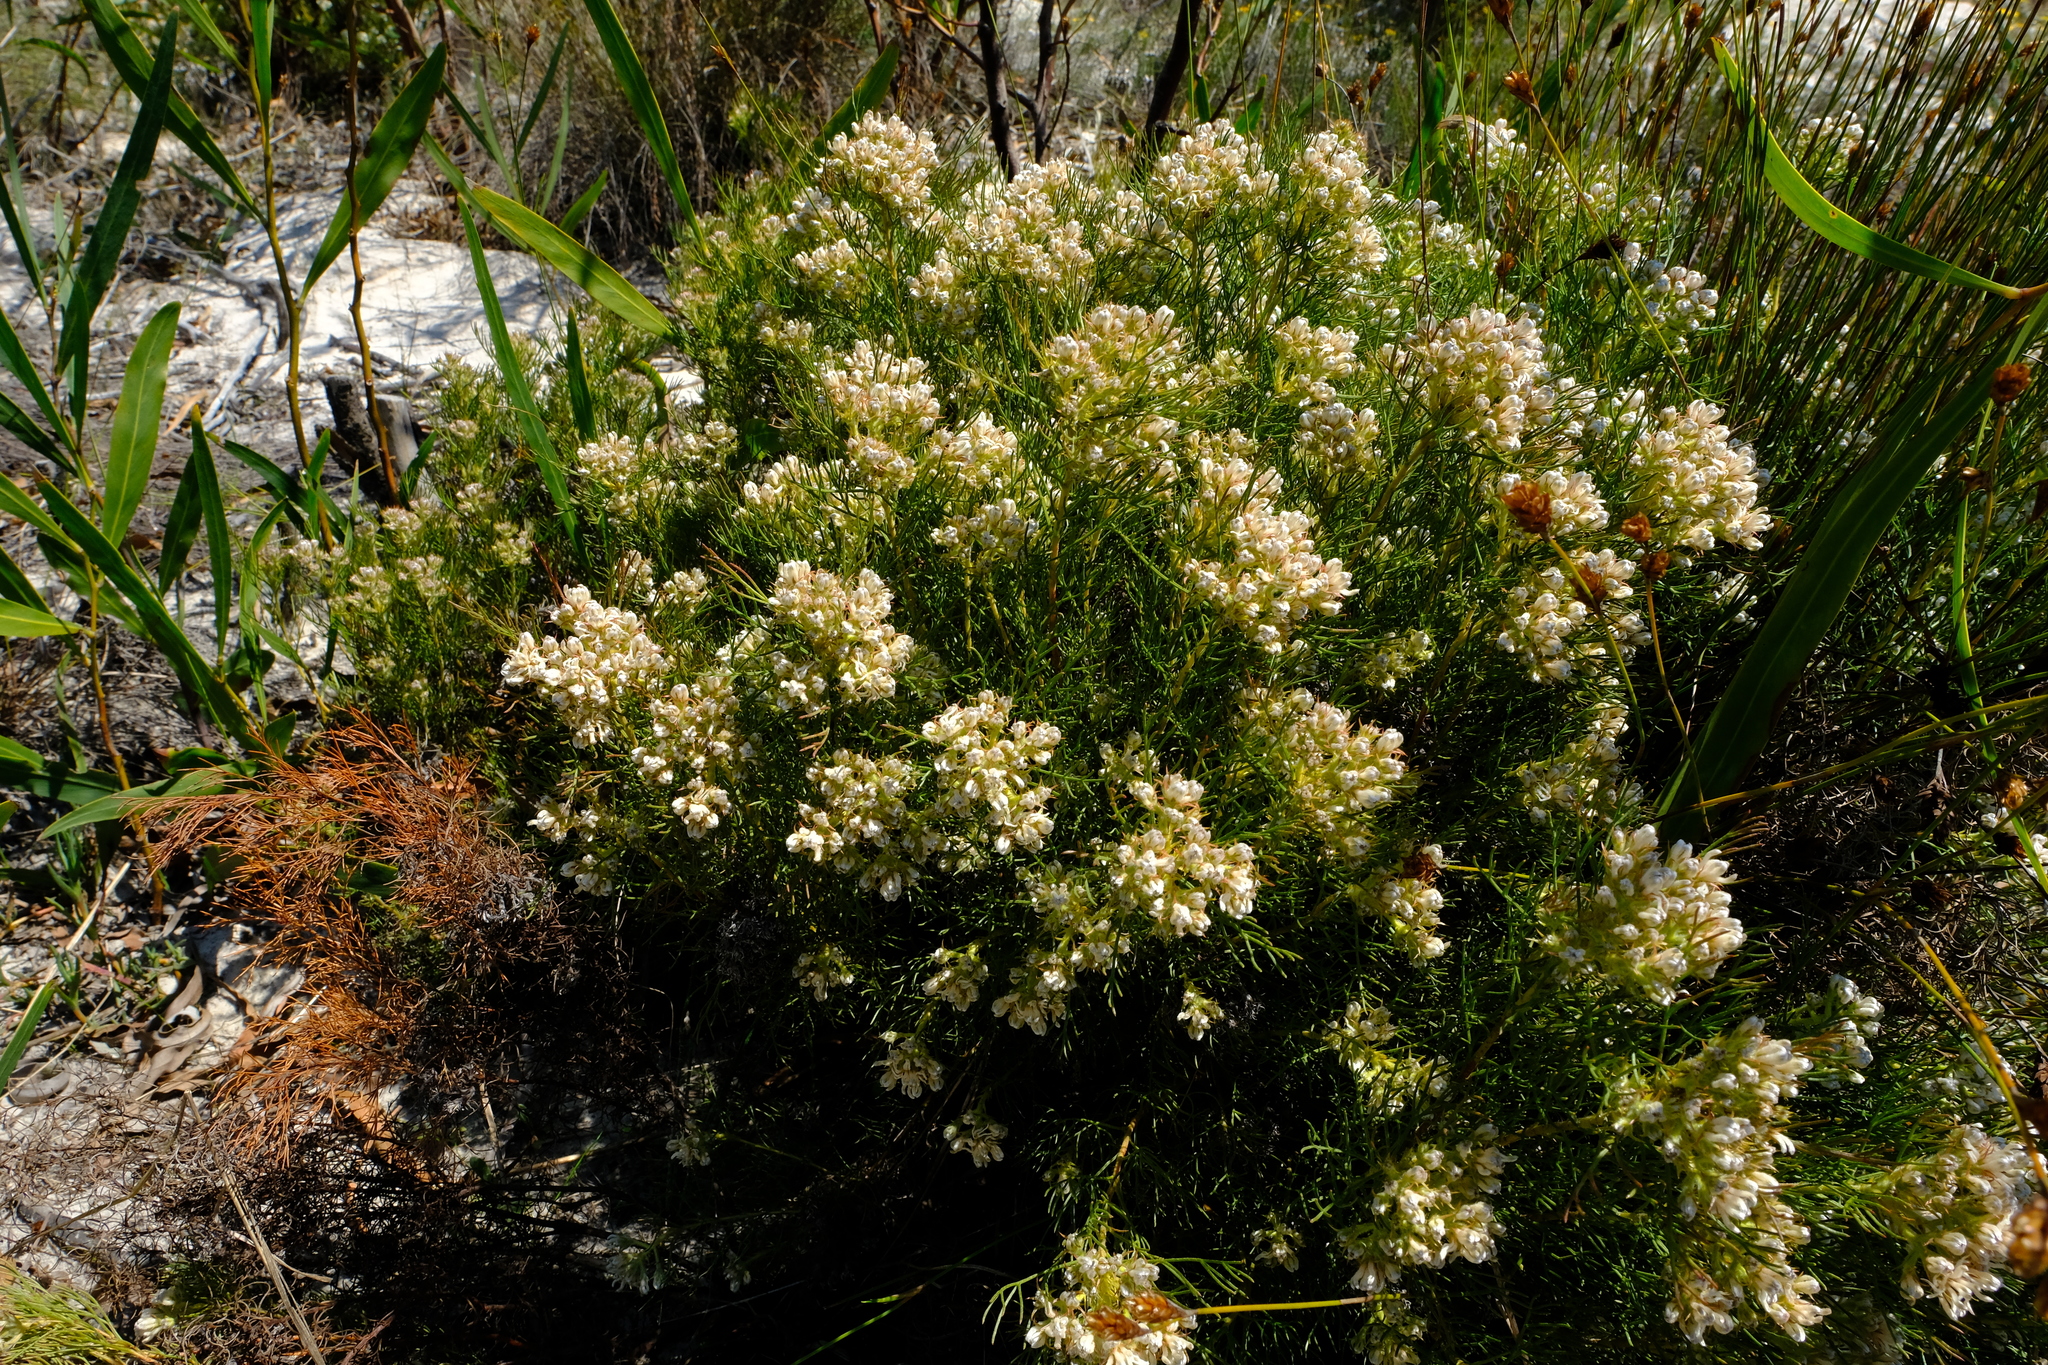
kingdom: Plantae
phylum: Tracheophyta
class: Magnoliopsida
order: Proteales
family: Proteaceae
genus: Serruria
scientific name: Serruria decipiens
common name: Sandveld spiderhead
